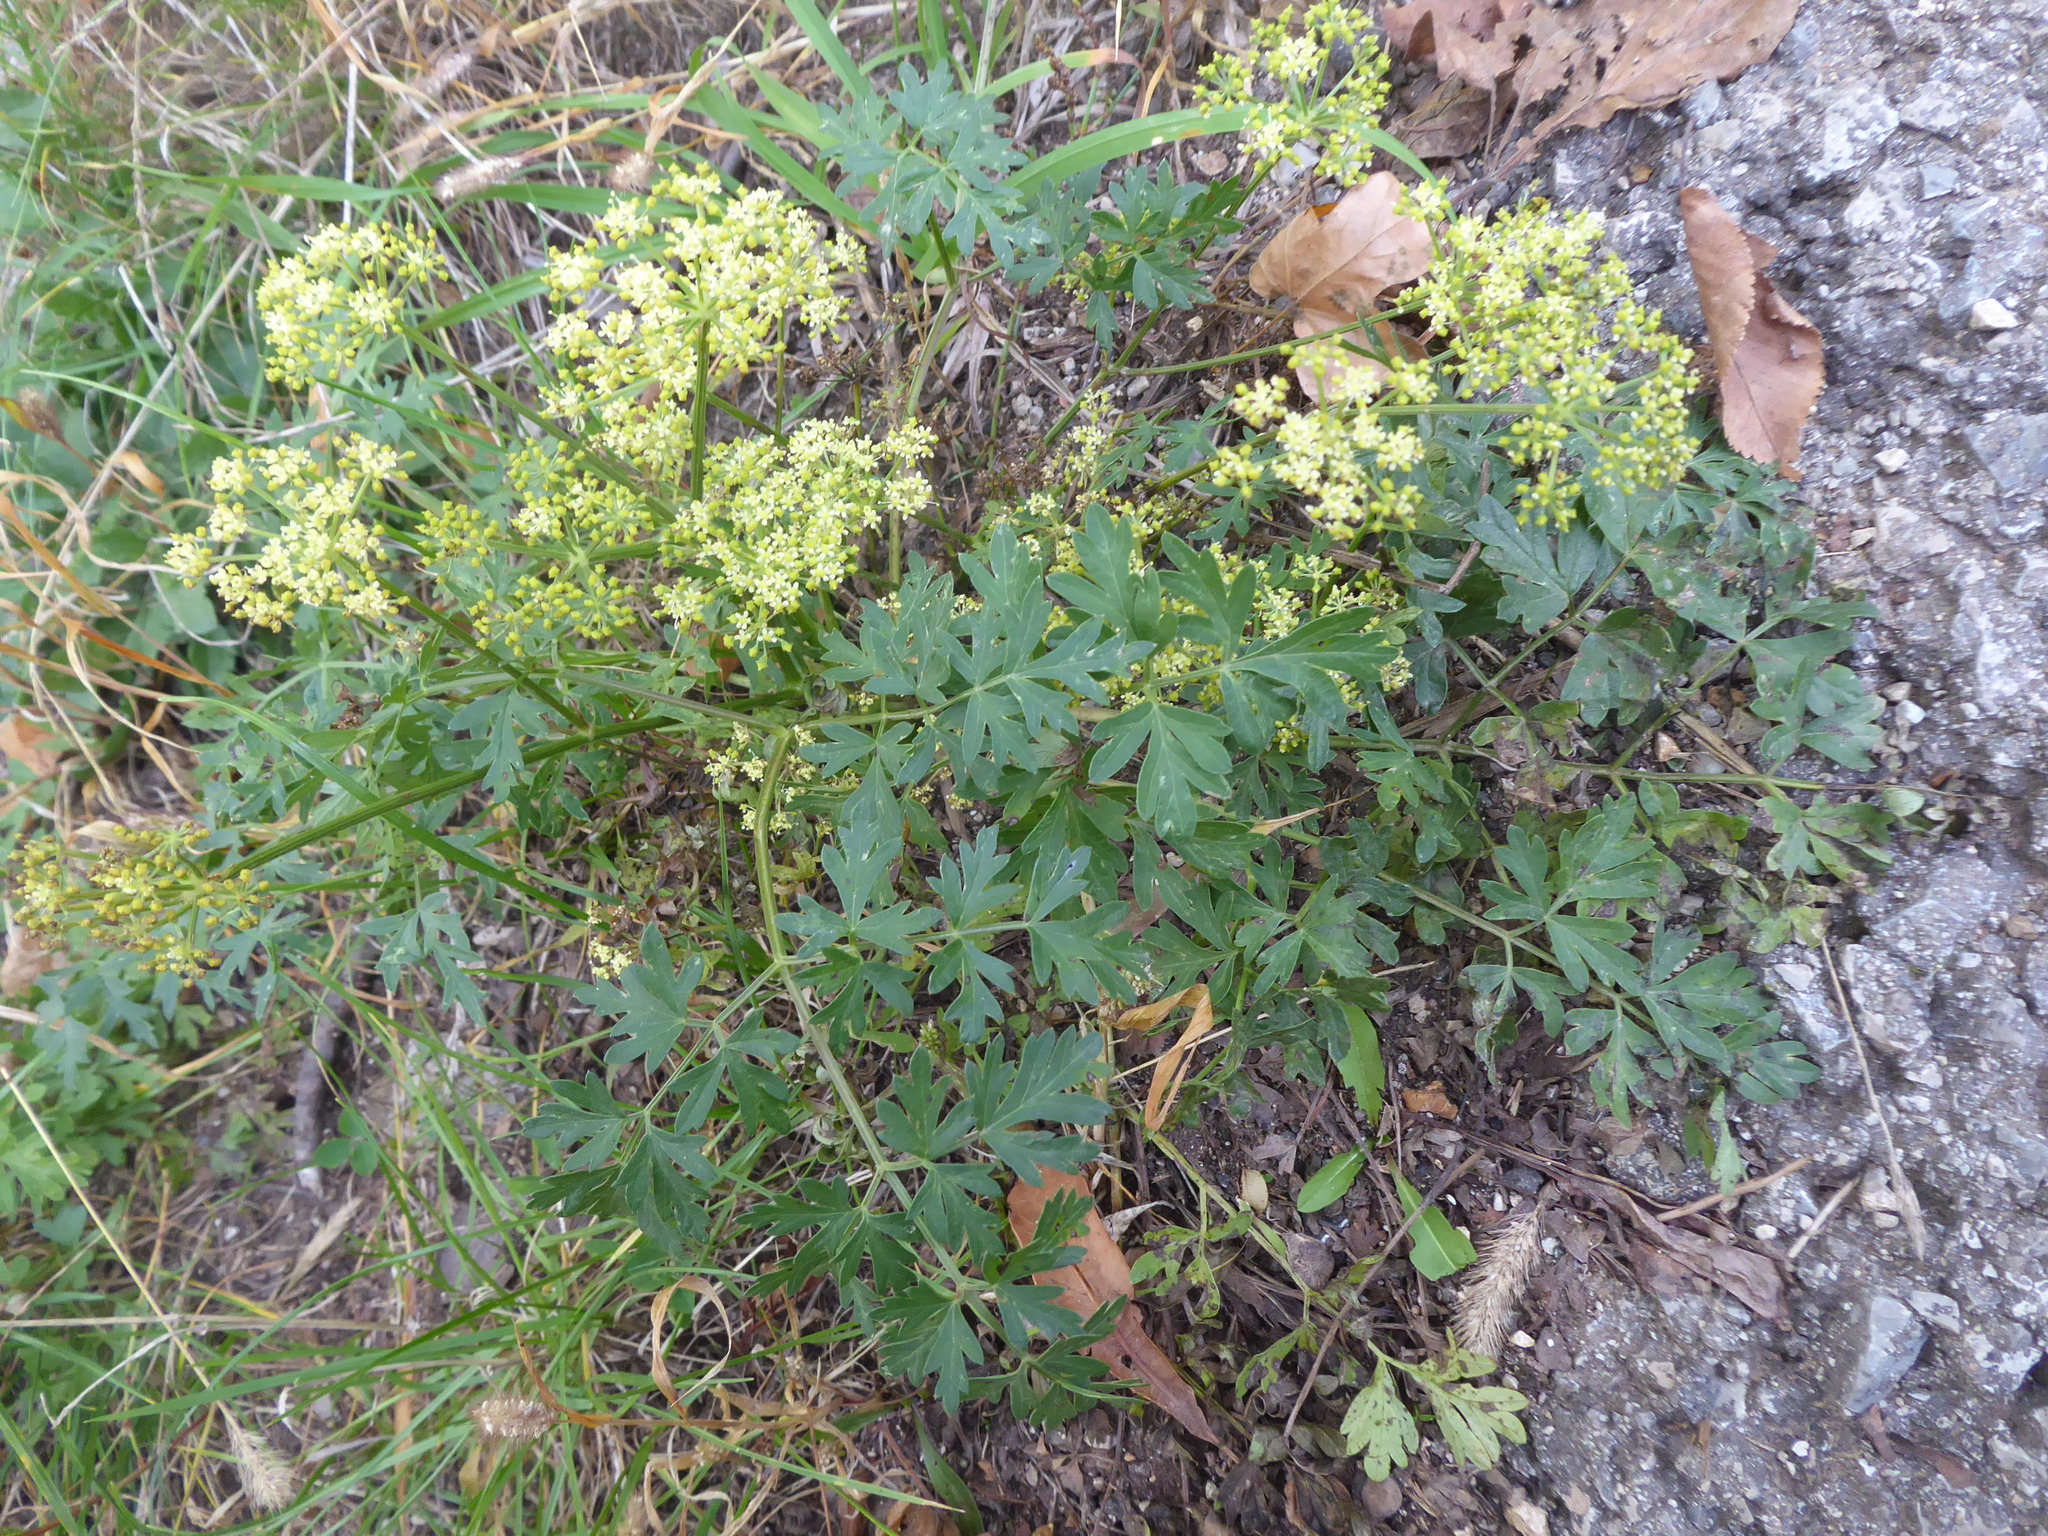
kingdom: Plantae
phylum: Tracheophyta
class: Magnoliopsida
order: Apiales
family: Apiaceae
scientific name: Apiaceae
